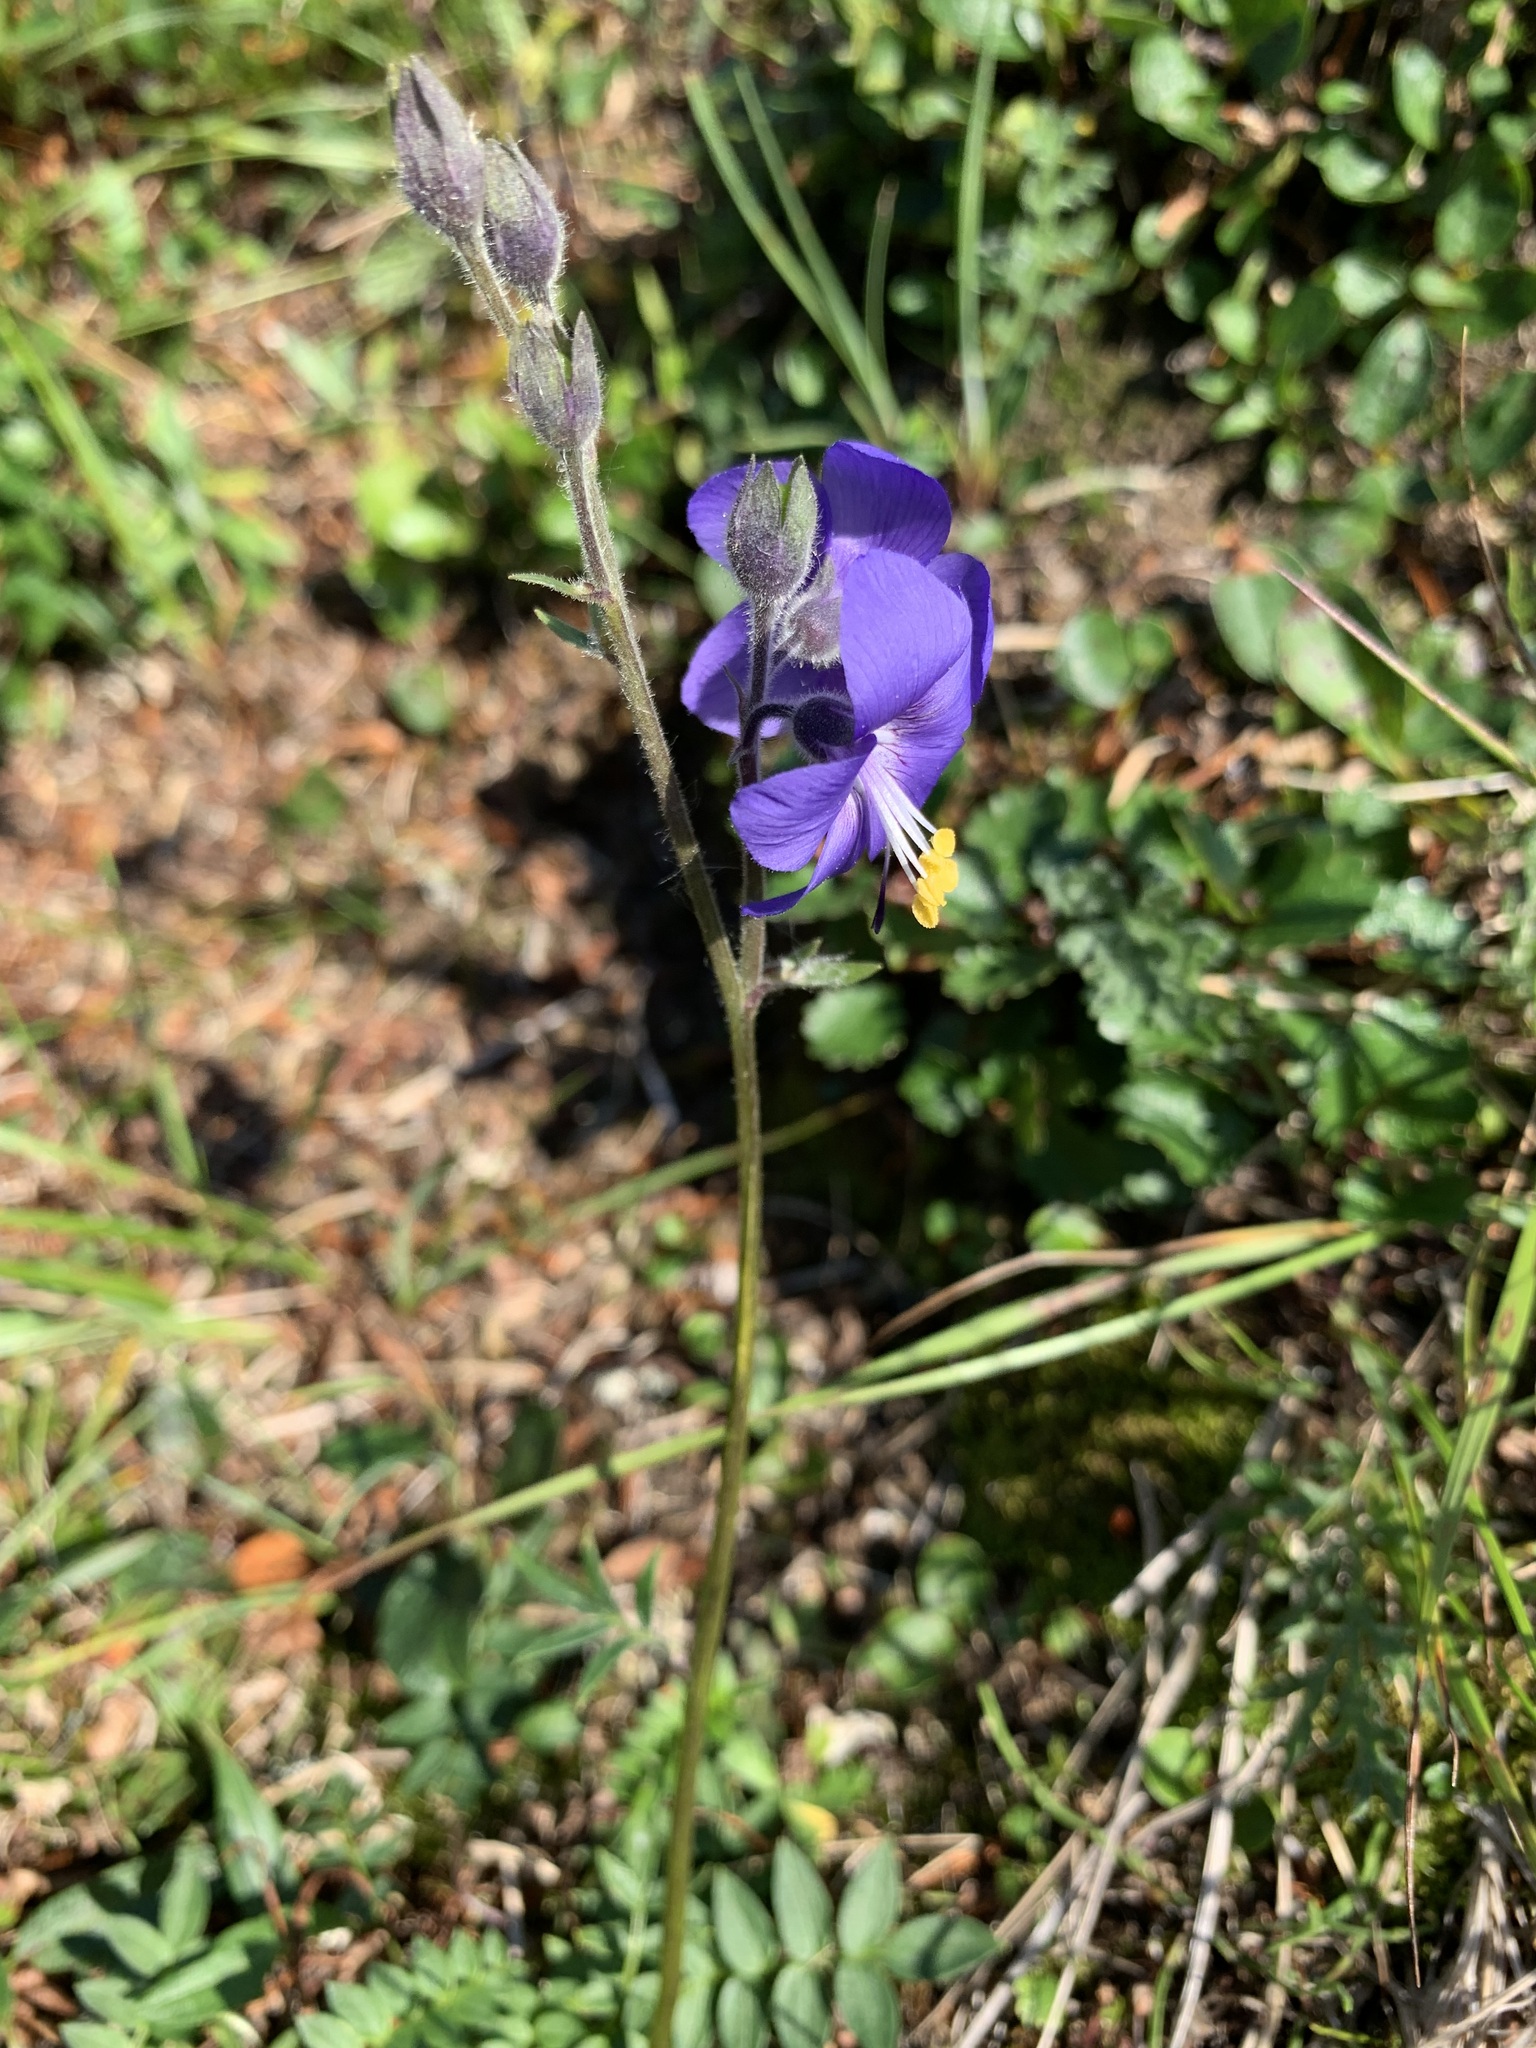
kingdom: Plantae
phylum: Tracheophyta
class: Magnoliopsida
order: Ericales
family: Polemoniaceae
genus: Polemonium
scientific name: Polemonium acutiflorum
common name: Tall jacob's-ladder
